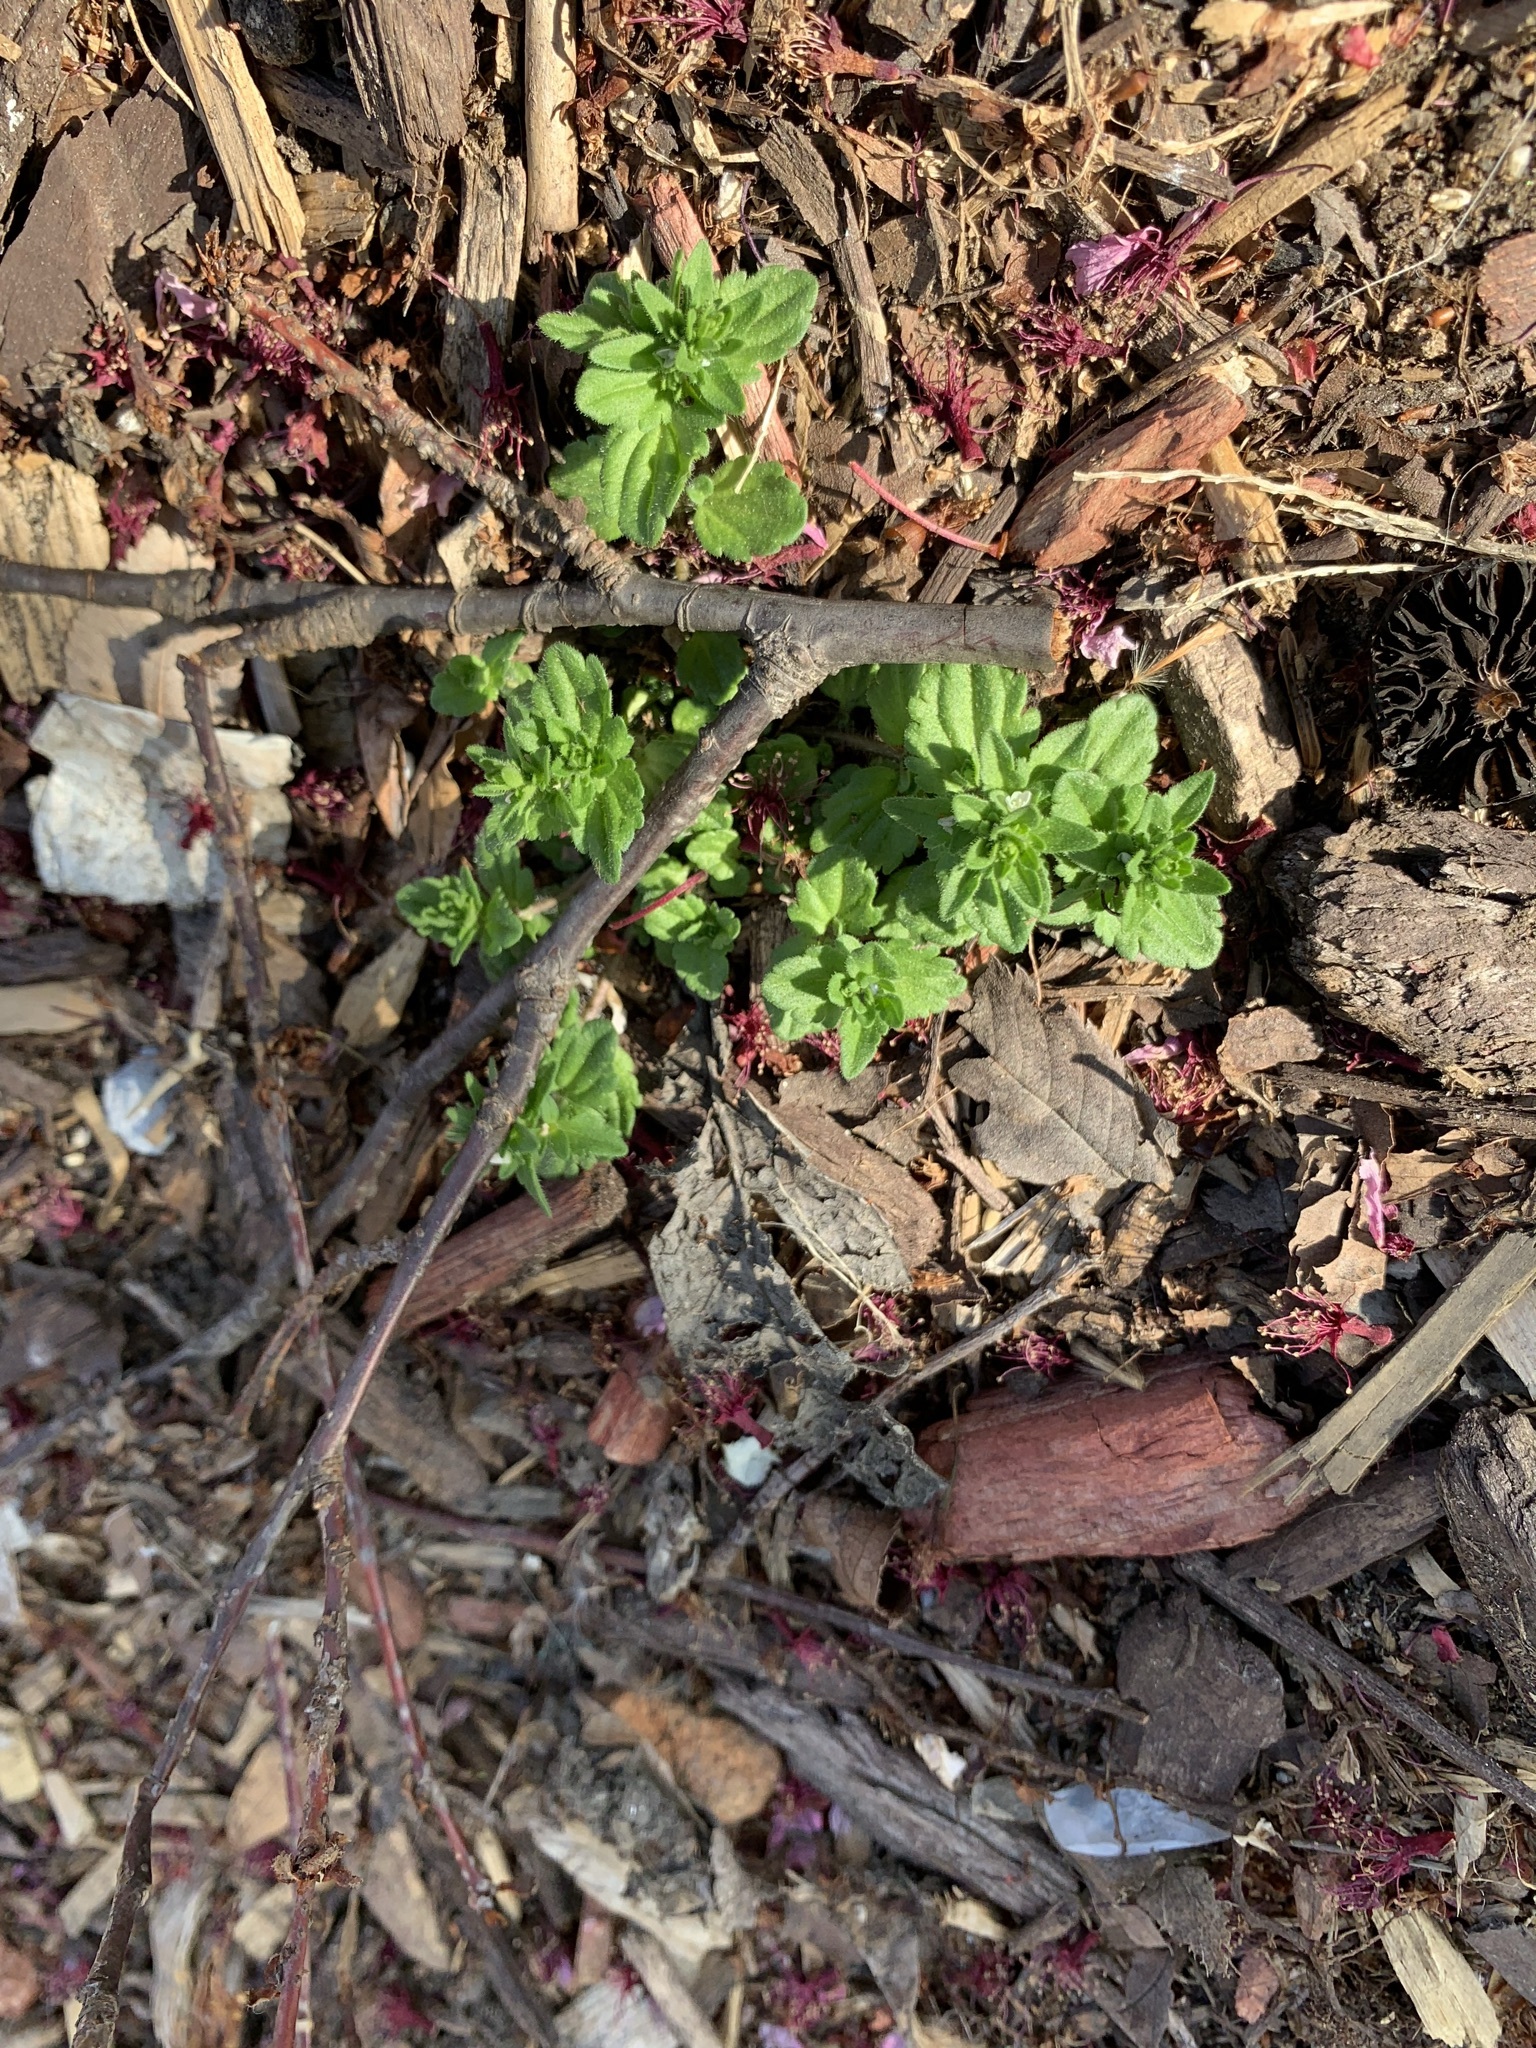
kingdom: Plantae
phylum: Tracheophyta
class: Magnoliopsida
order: Lamiales
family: Plantaginaceae
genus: Veronica
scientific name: Veronica arvensis
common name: Corn speedwell
